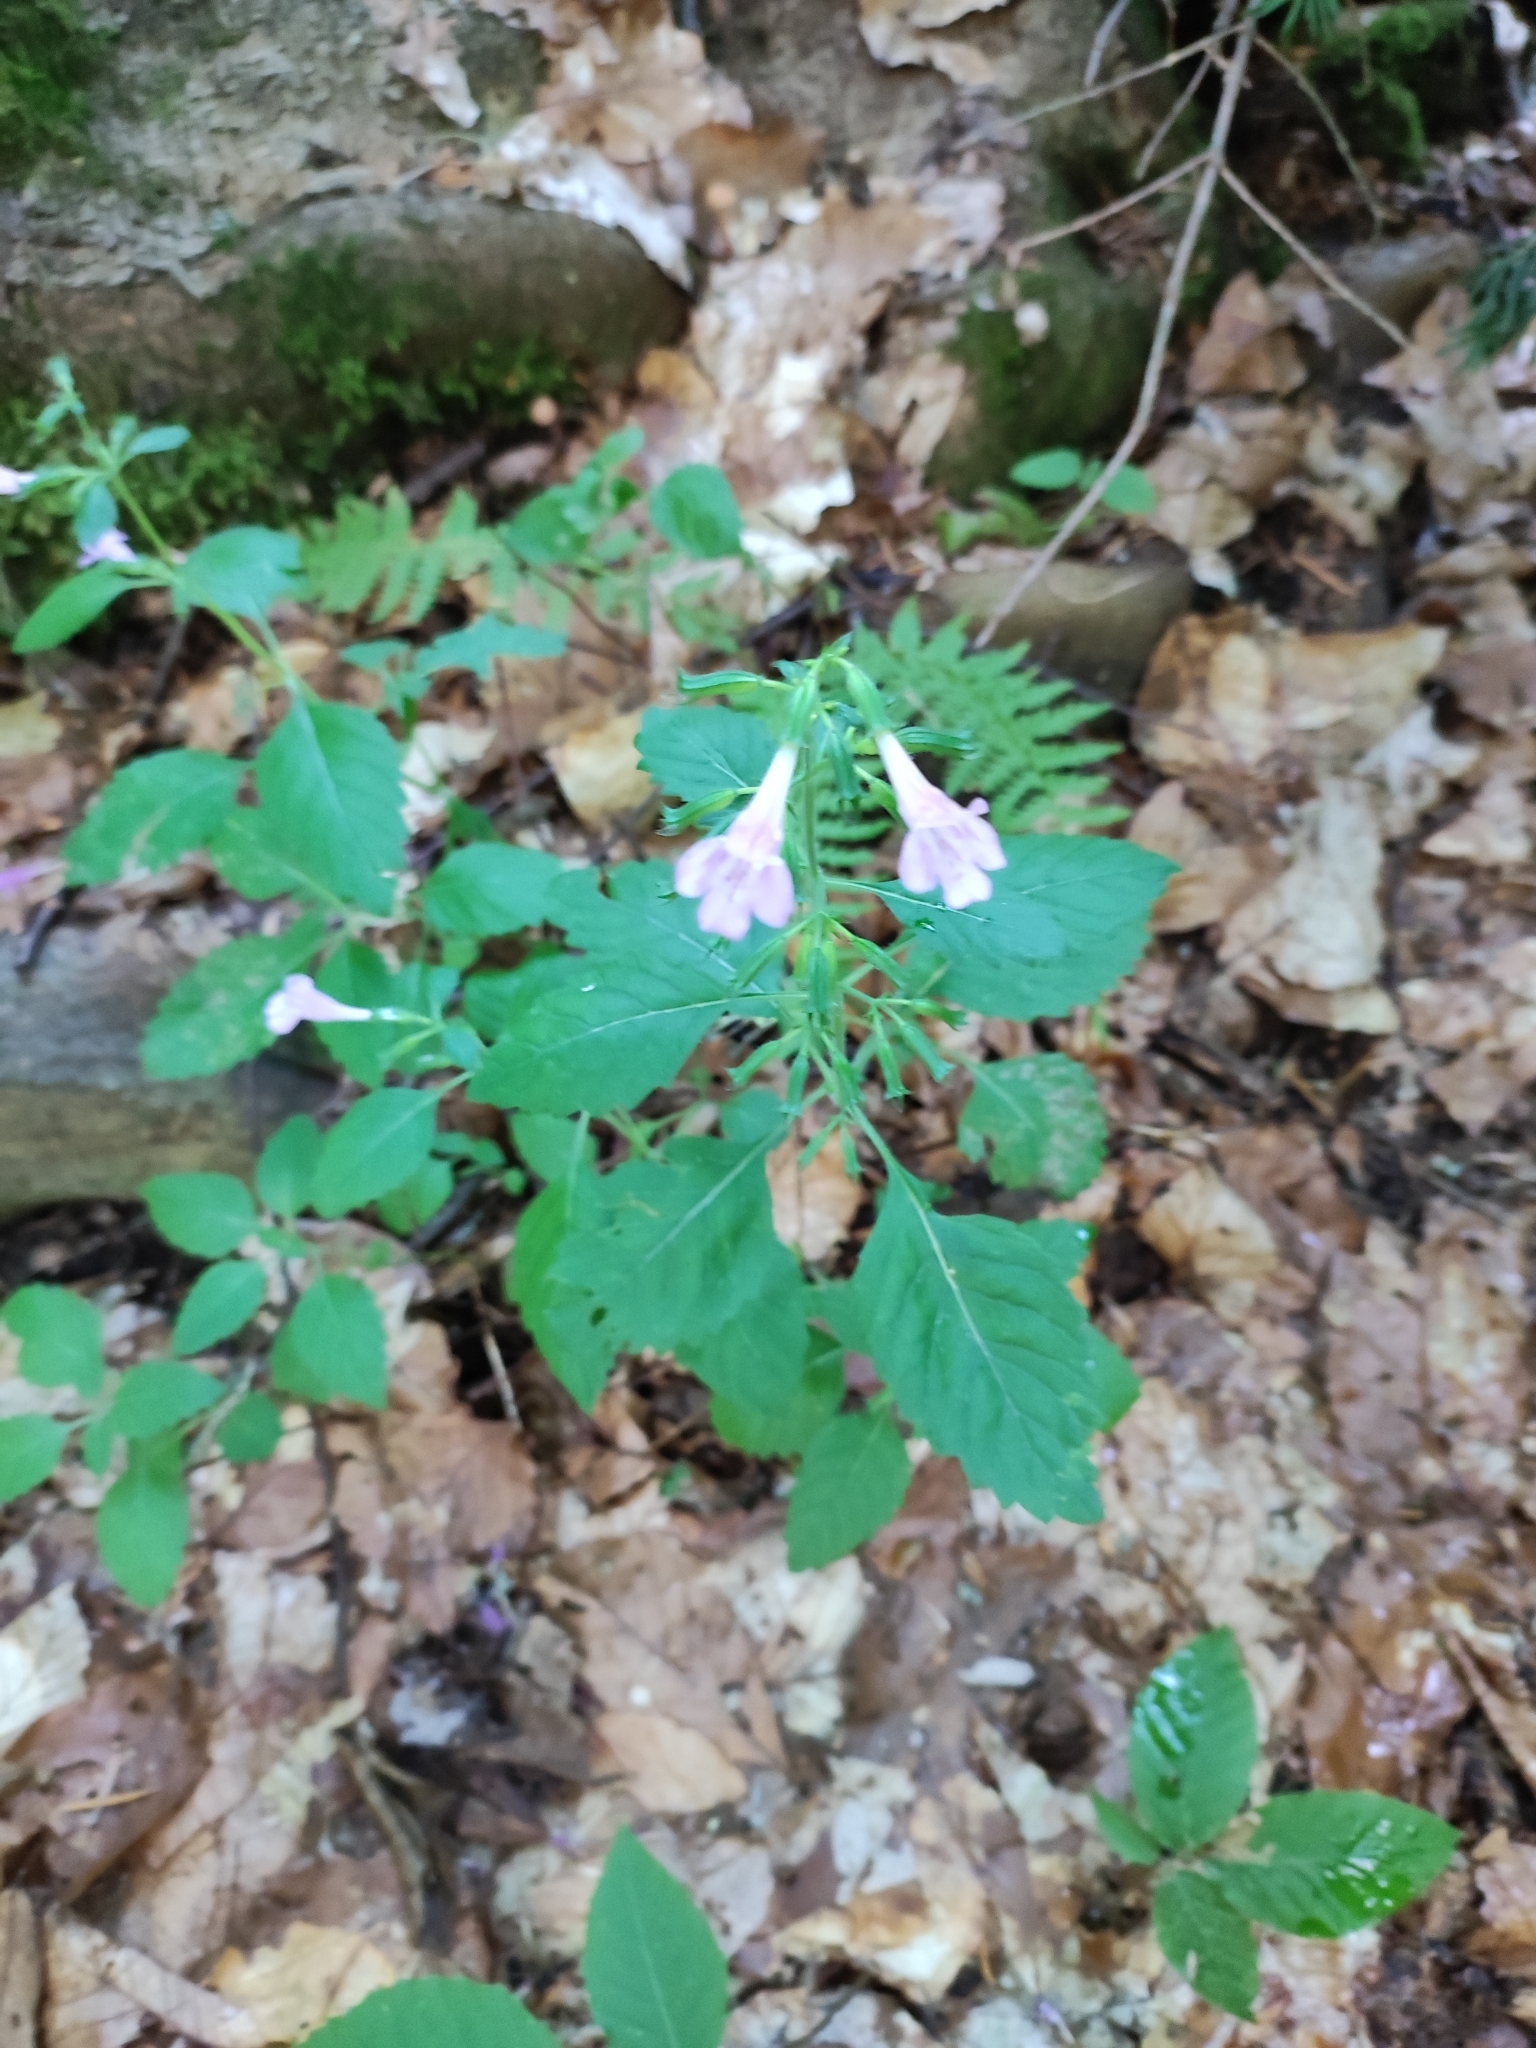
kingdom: Plantae
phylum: Tracheophyta
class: Magnoliopsida
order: Lamiales
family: Lamiaceae
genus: Clinopodium
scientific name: Clinopodium grandiflorum
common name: Greater calamint
